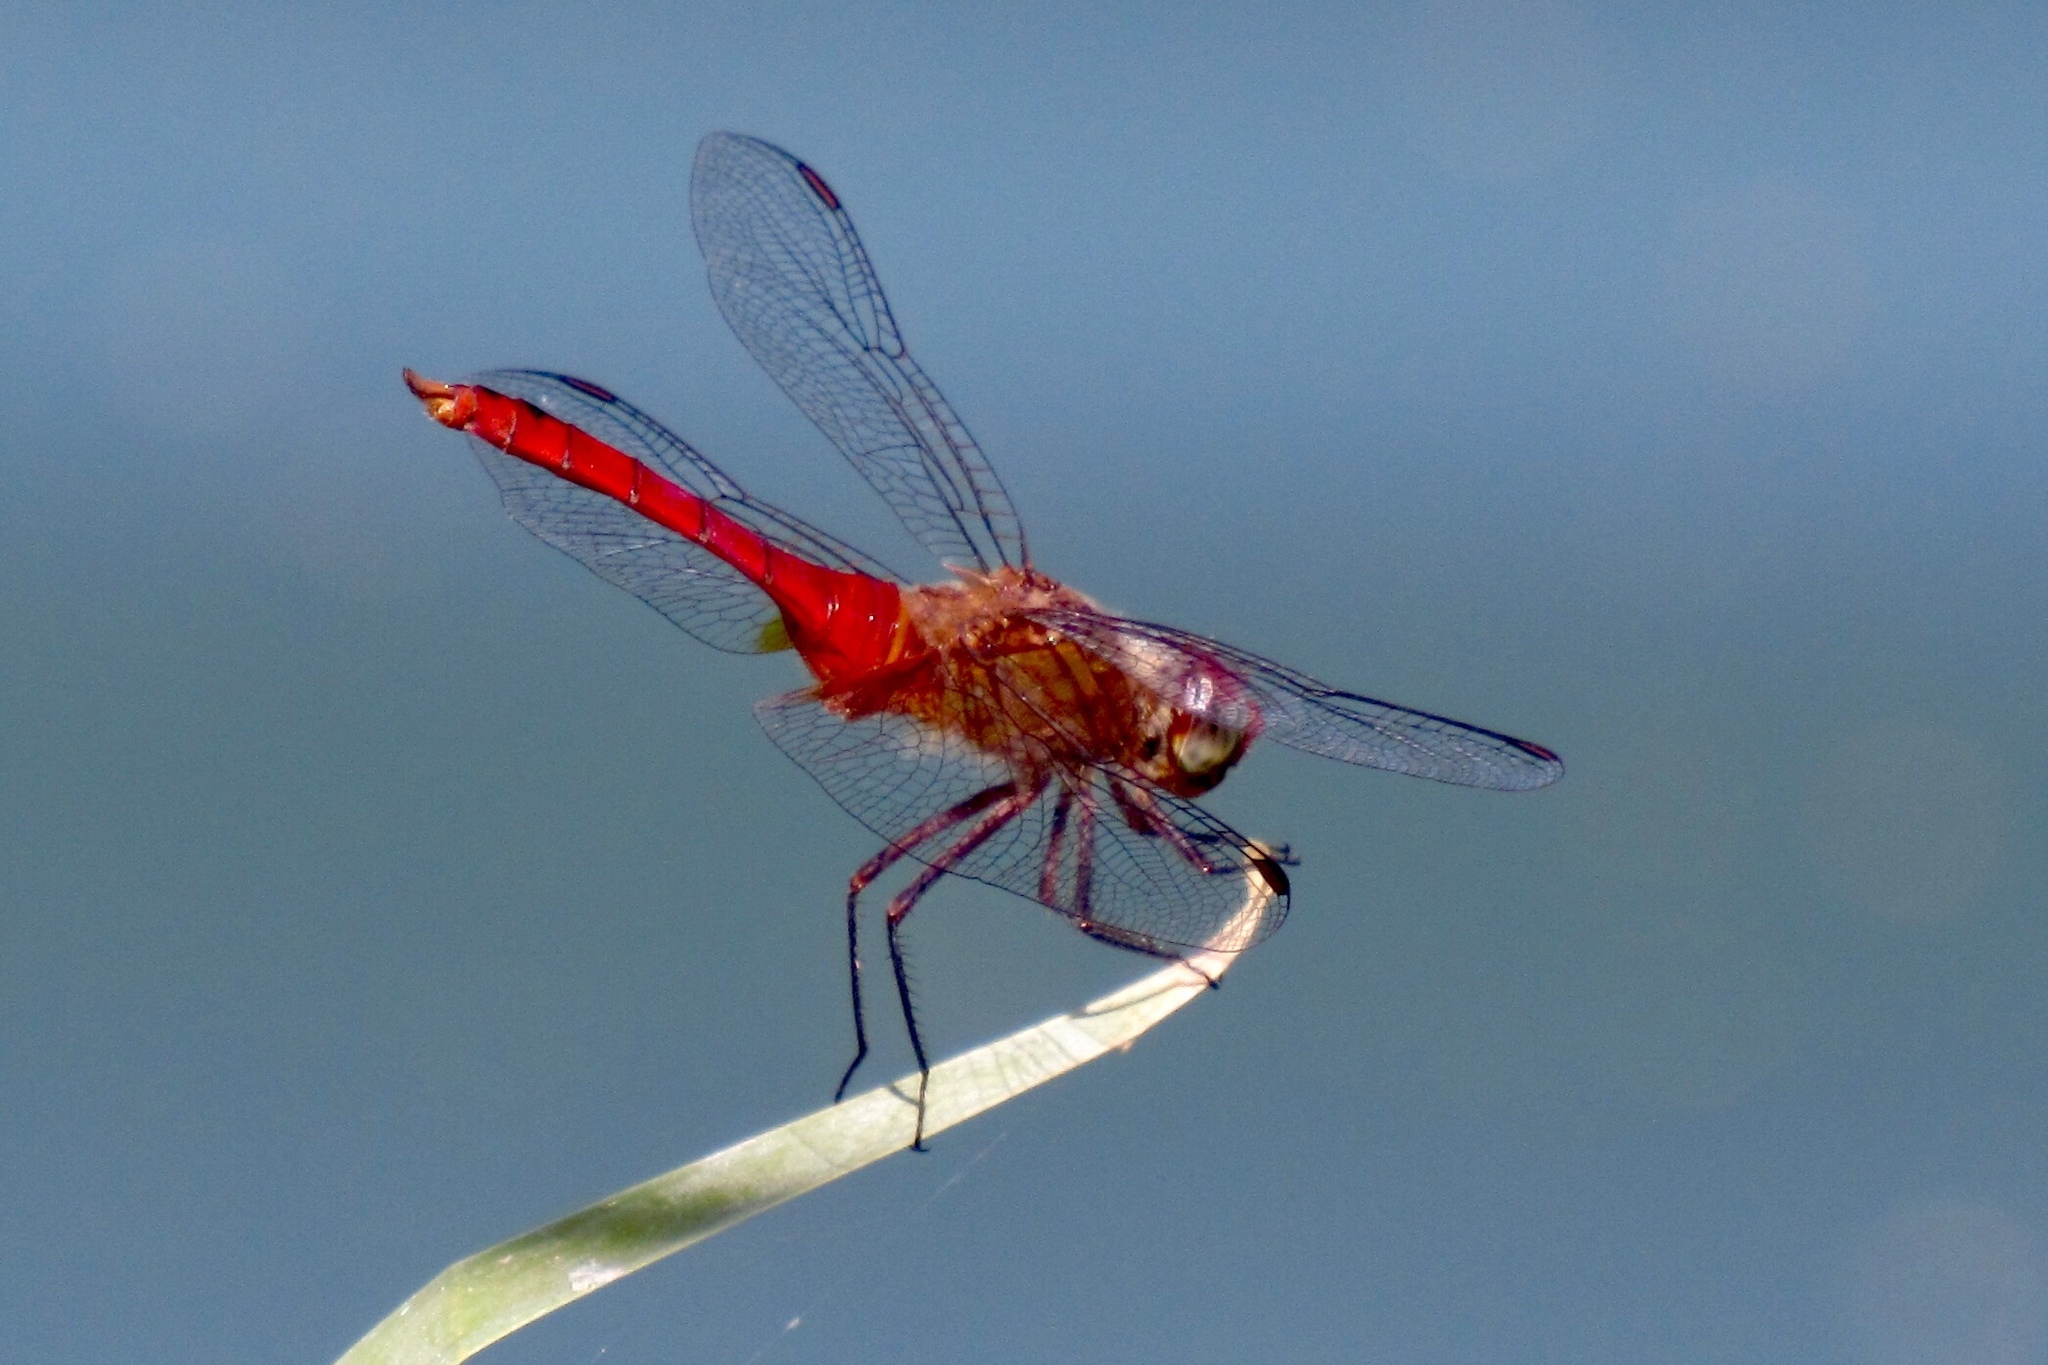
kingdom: Animalia
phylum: Arthropoda
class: Insecta
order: Odonata
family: Libellulidae
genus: Brachymesia
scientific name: Brachymesia furcata
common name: Red-taled pennant
